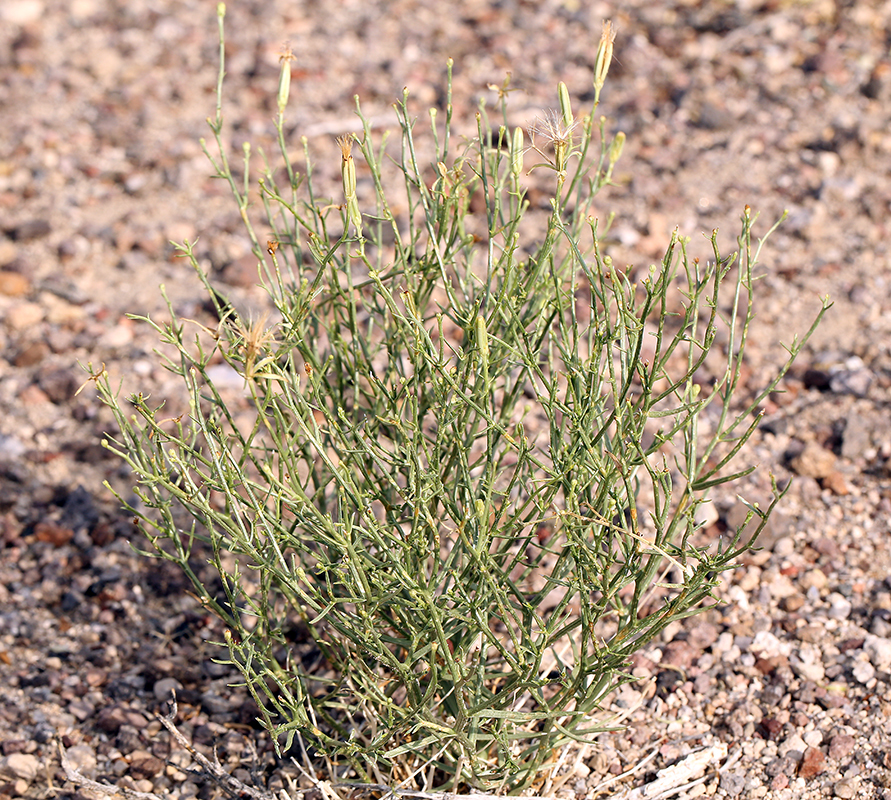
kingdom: Plantae
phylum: Tracheophyta
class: Magnoliopsida
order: Asterales
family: Asteraceae
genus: Chaetadelpha
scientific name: Chaetadelpha wheeleri
